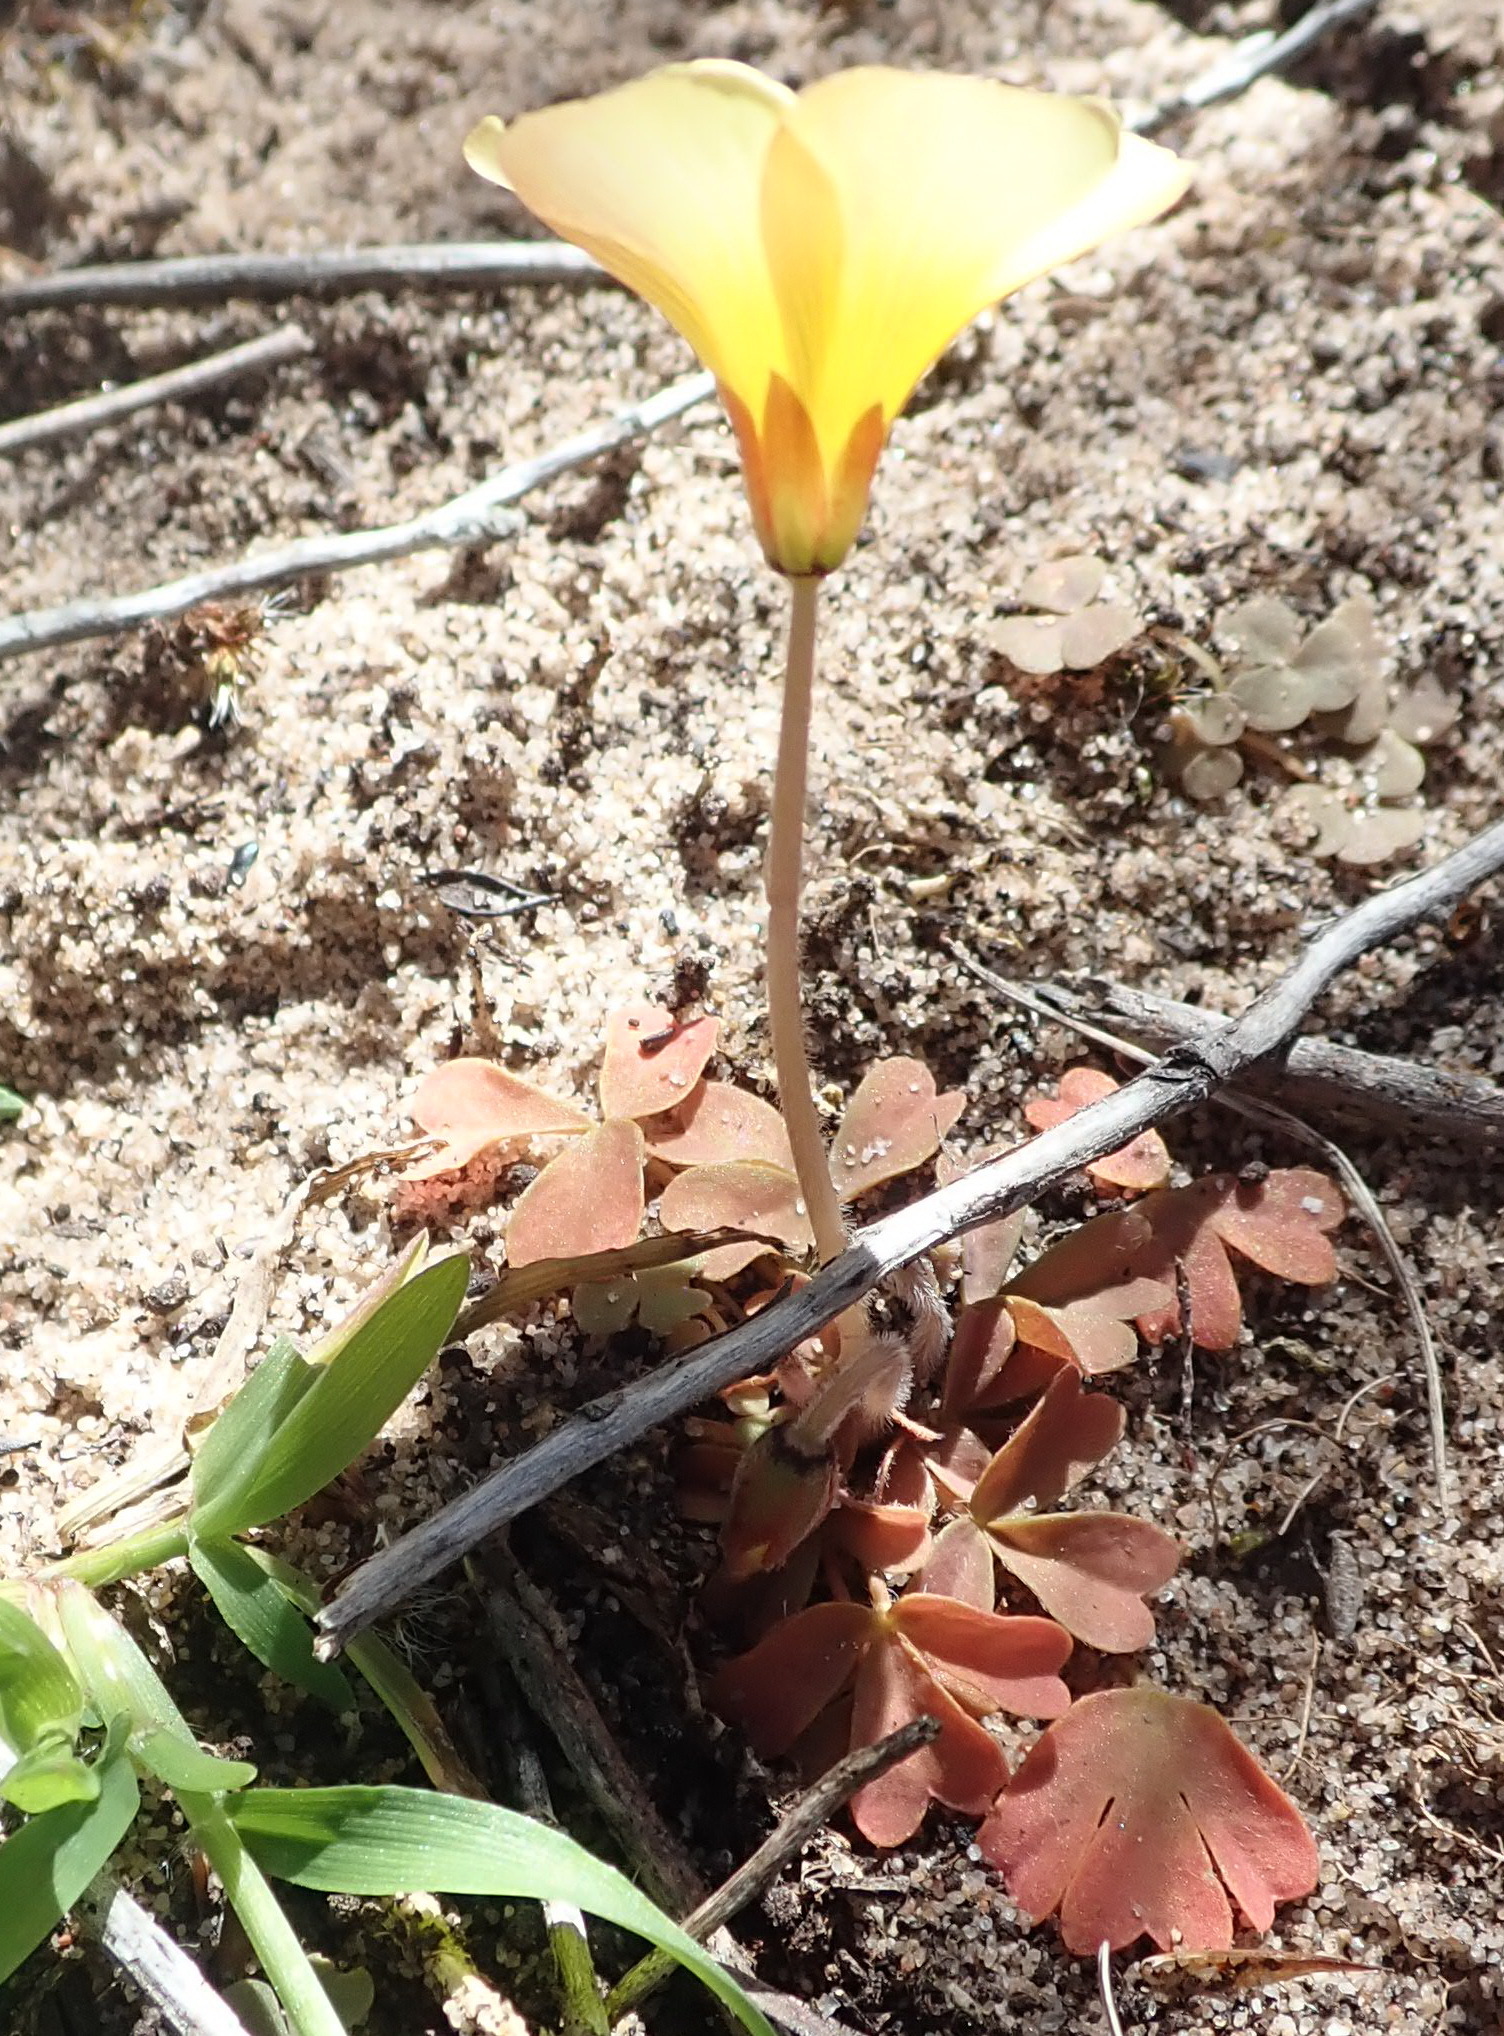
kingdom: Plantae
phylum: Tracheophyta
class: Magnoliopsida
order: Oxalidales
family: Oxalidaceae
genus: Oxalis
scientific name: Oxalis obtusa
